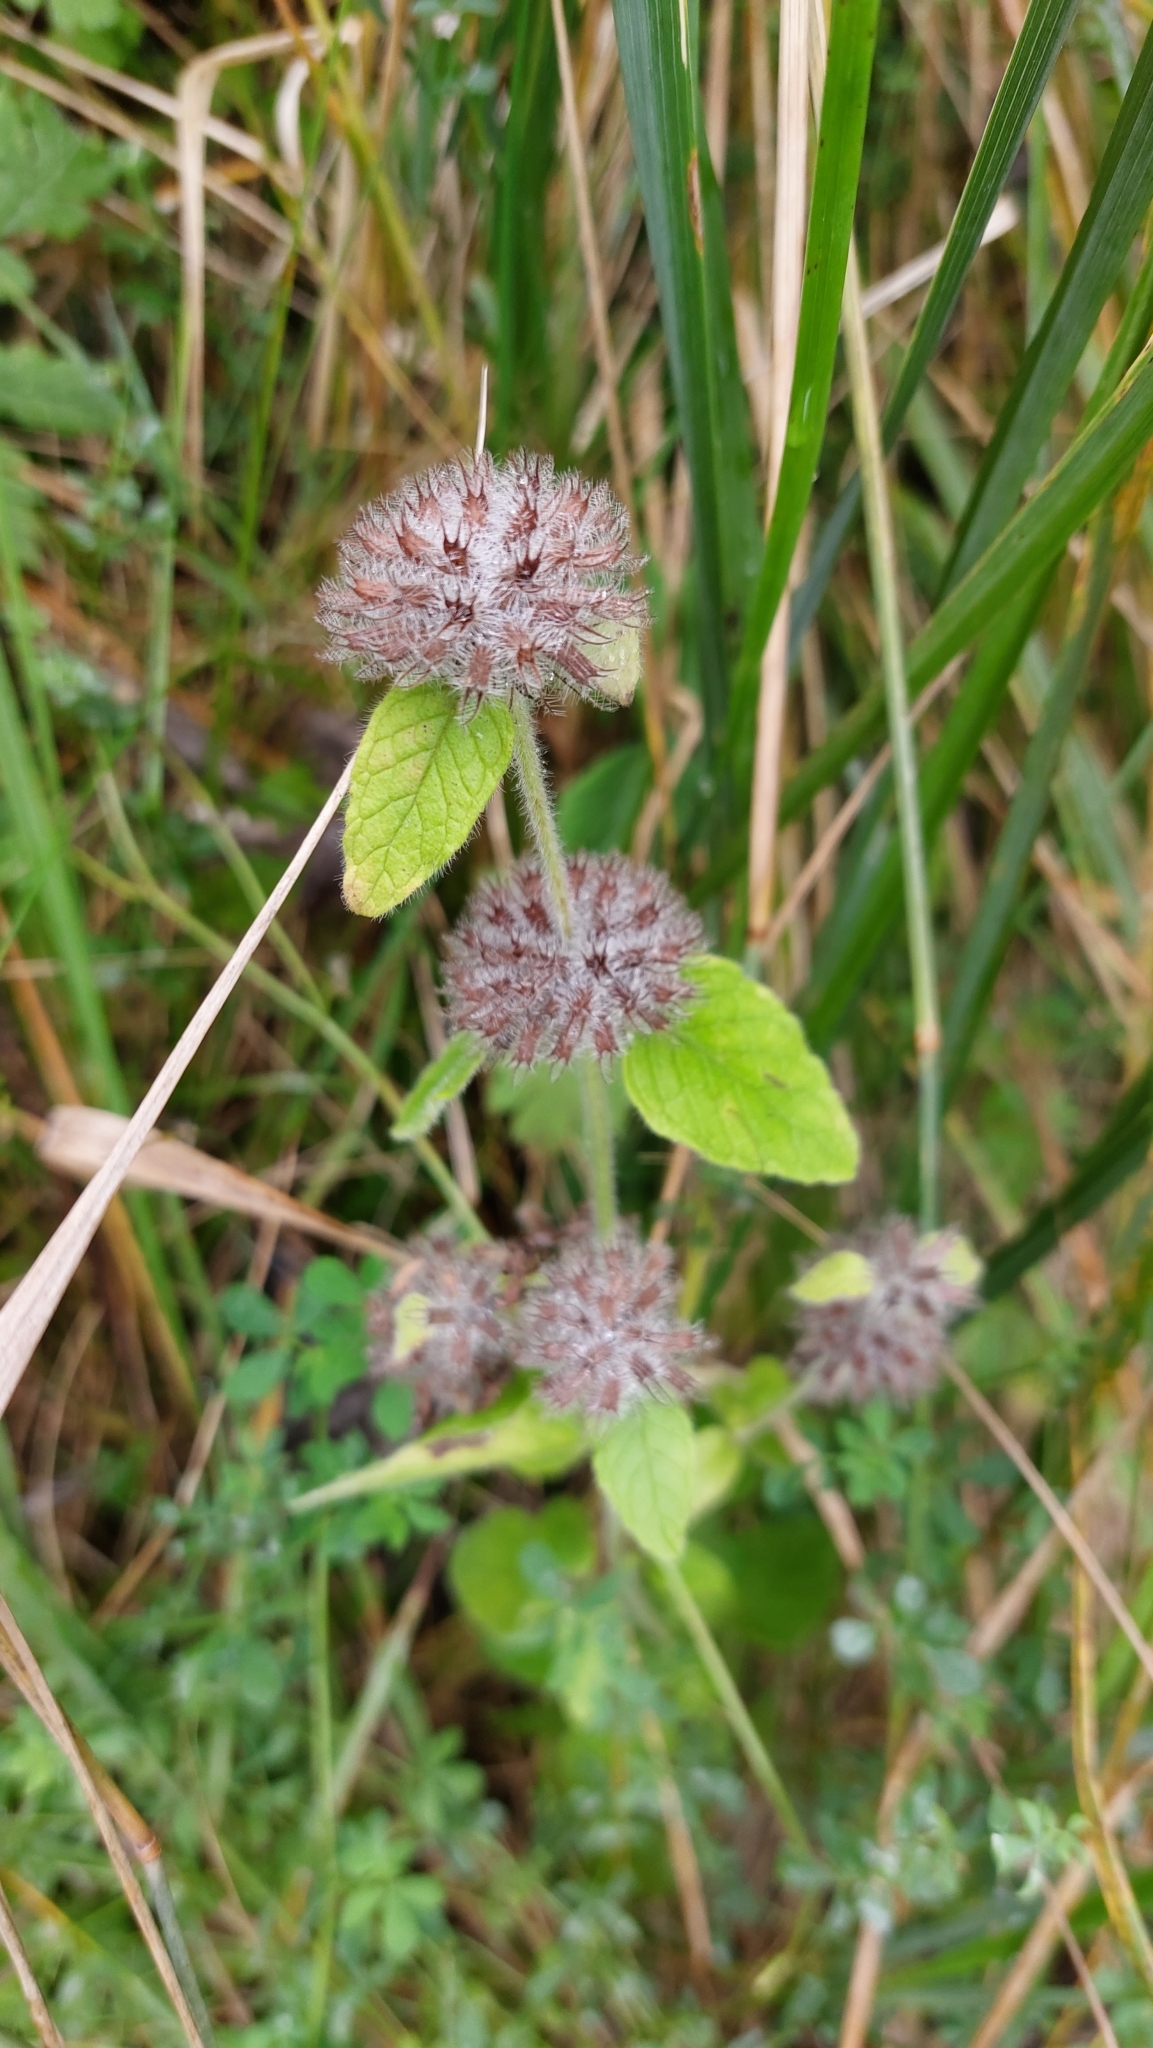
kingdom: Plantae
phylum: Tracheophyta
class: Magnoliopsida
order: Lamiales
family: Lamiaceae
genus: Clinopodium
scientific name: Clinopodium vulgare
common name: Wild basil
